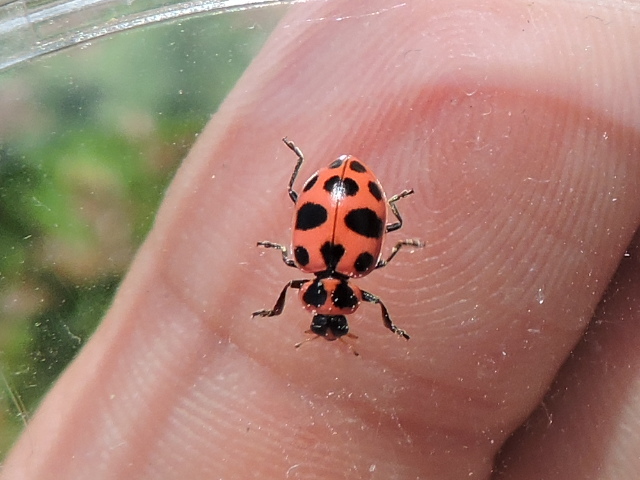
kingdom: Animalia
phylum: Arthropoda
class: Insecta
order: Coleoptera
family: Coccinellidae
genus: Coleomegilla
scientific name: Coleomegilla maculata
